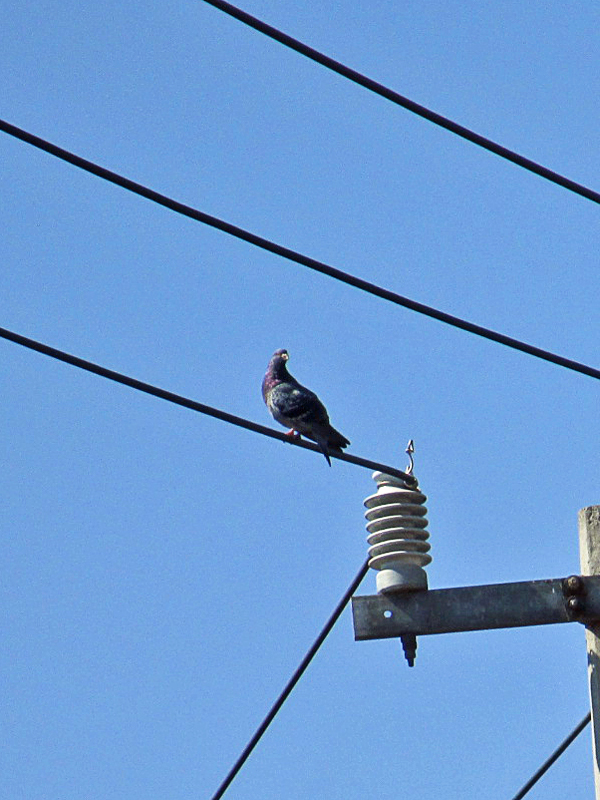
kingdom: Animalia
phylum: Chordata
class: Aves
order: Columbiformes
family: Columbidae
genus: Columba
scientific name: Columba livia
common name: Rock pigeon
